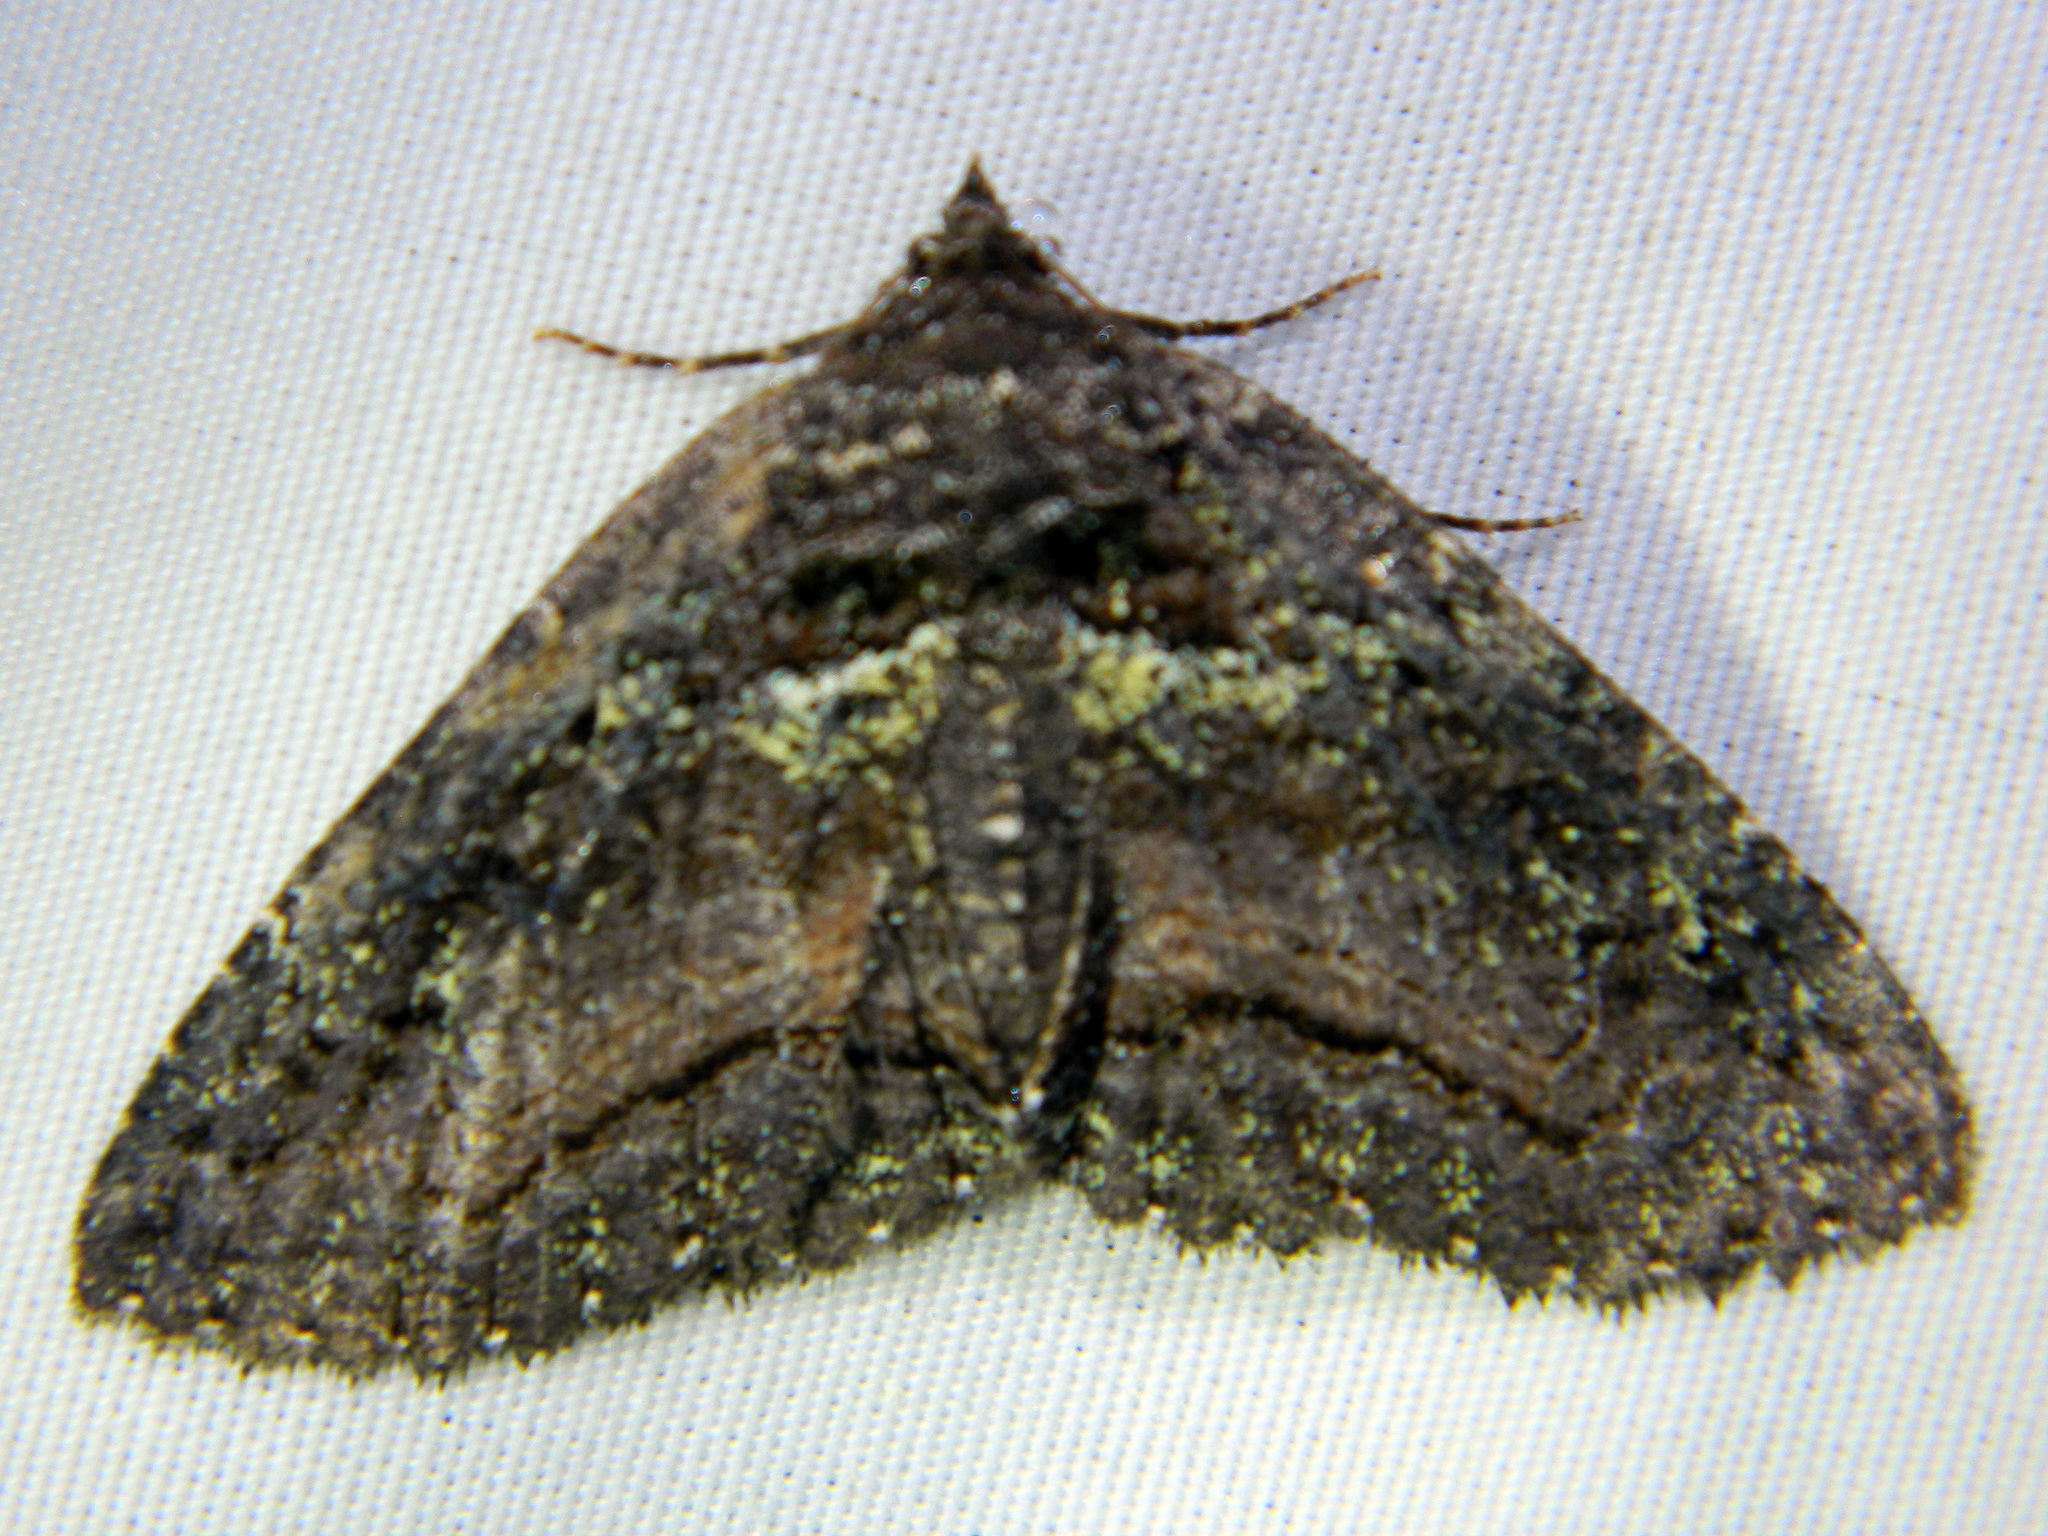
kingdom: Animalia
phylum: Arthropoda
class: Insecta
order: Lepidoptera
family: Erebidae
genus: Zale
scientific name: Zale aeruginosa
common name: Green-dusted zale moth
